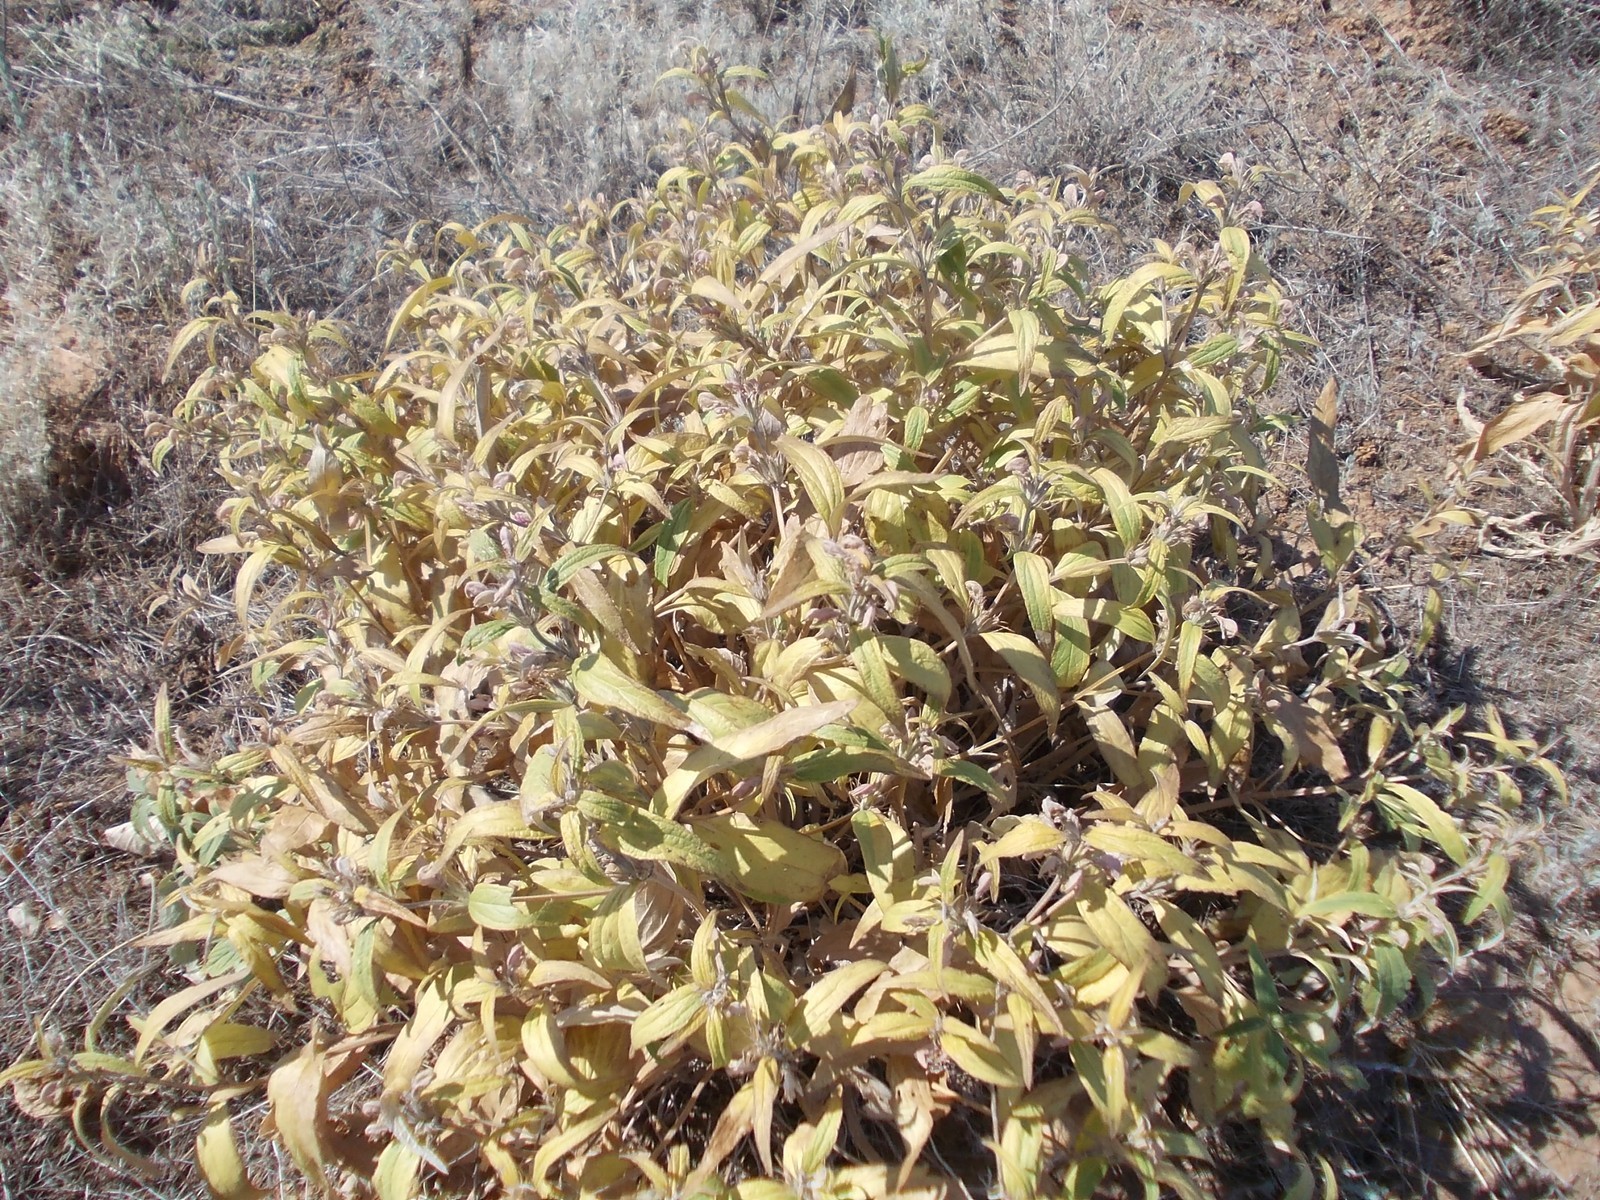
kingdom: Plantae
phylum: Tracheophyta
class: Magnoliopsida
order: Lamiales
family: Lamiaceae
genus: Phlomis
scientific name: Phlomis herba-venti
